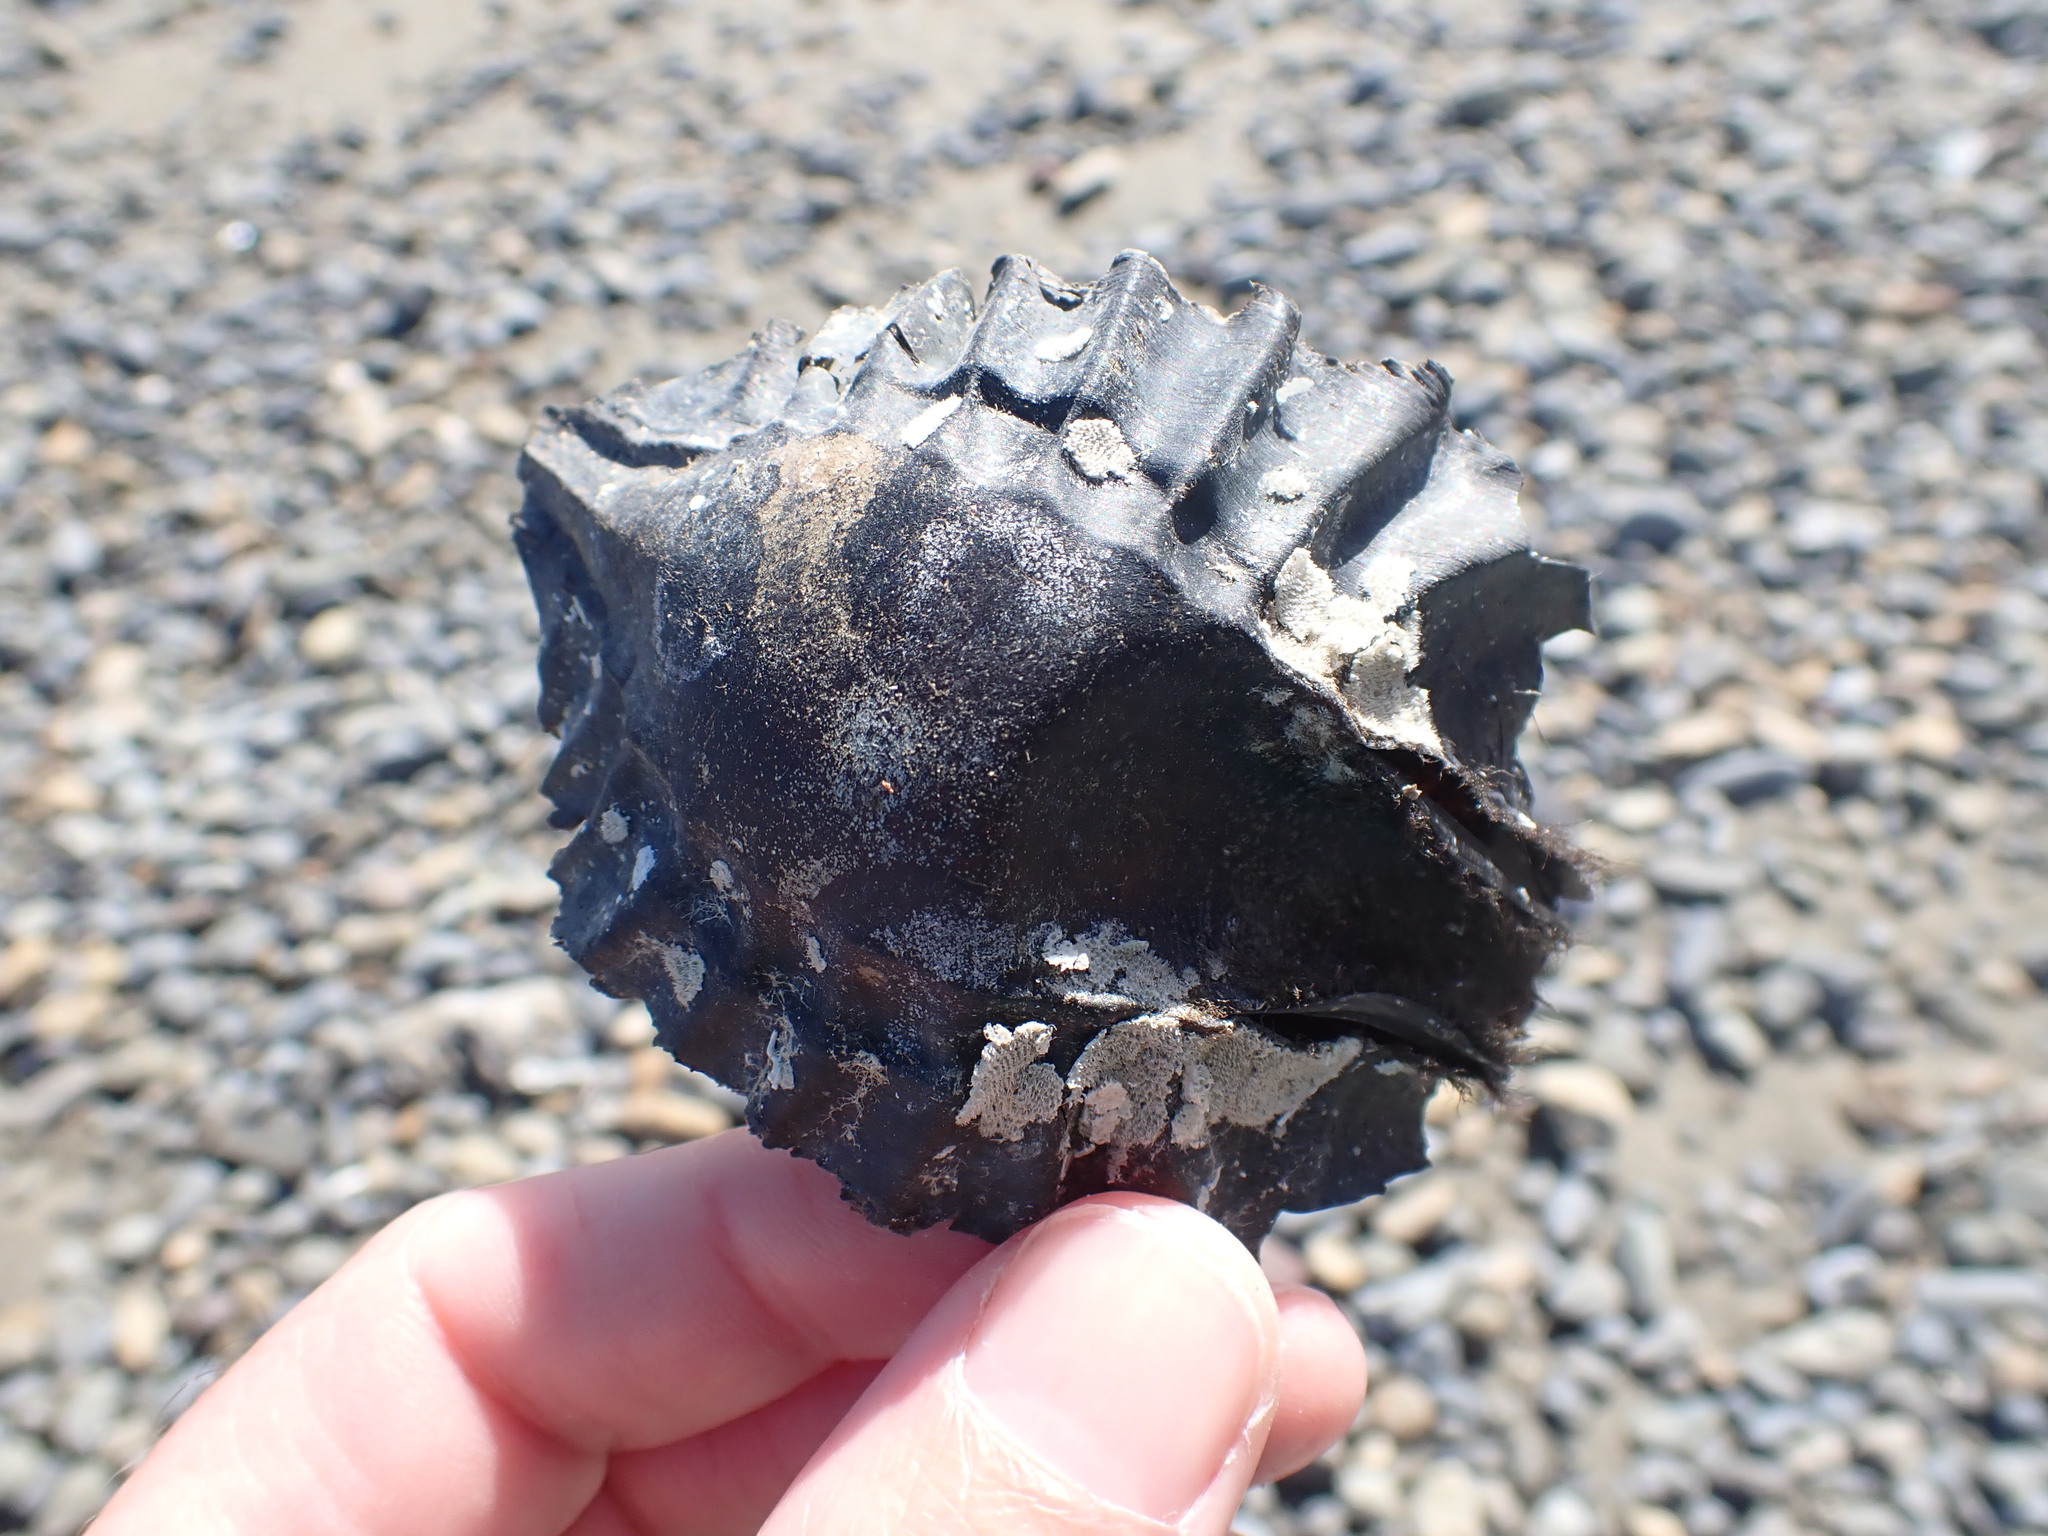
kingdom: Animalia
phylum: Chordata
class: Holocephali
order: Chimaeriformes
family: Callorhinchidae
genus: Callorhinchus
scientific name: Callorhinchus milii
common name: Elephant fish
